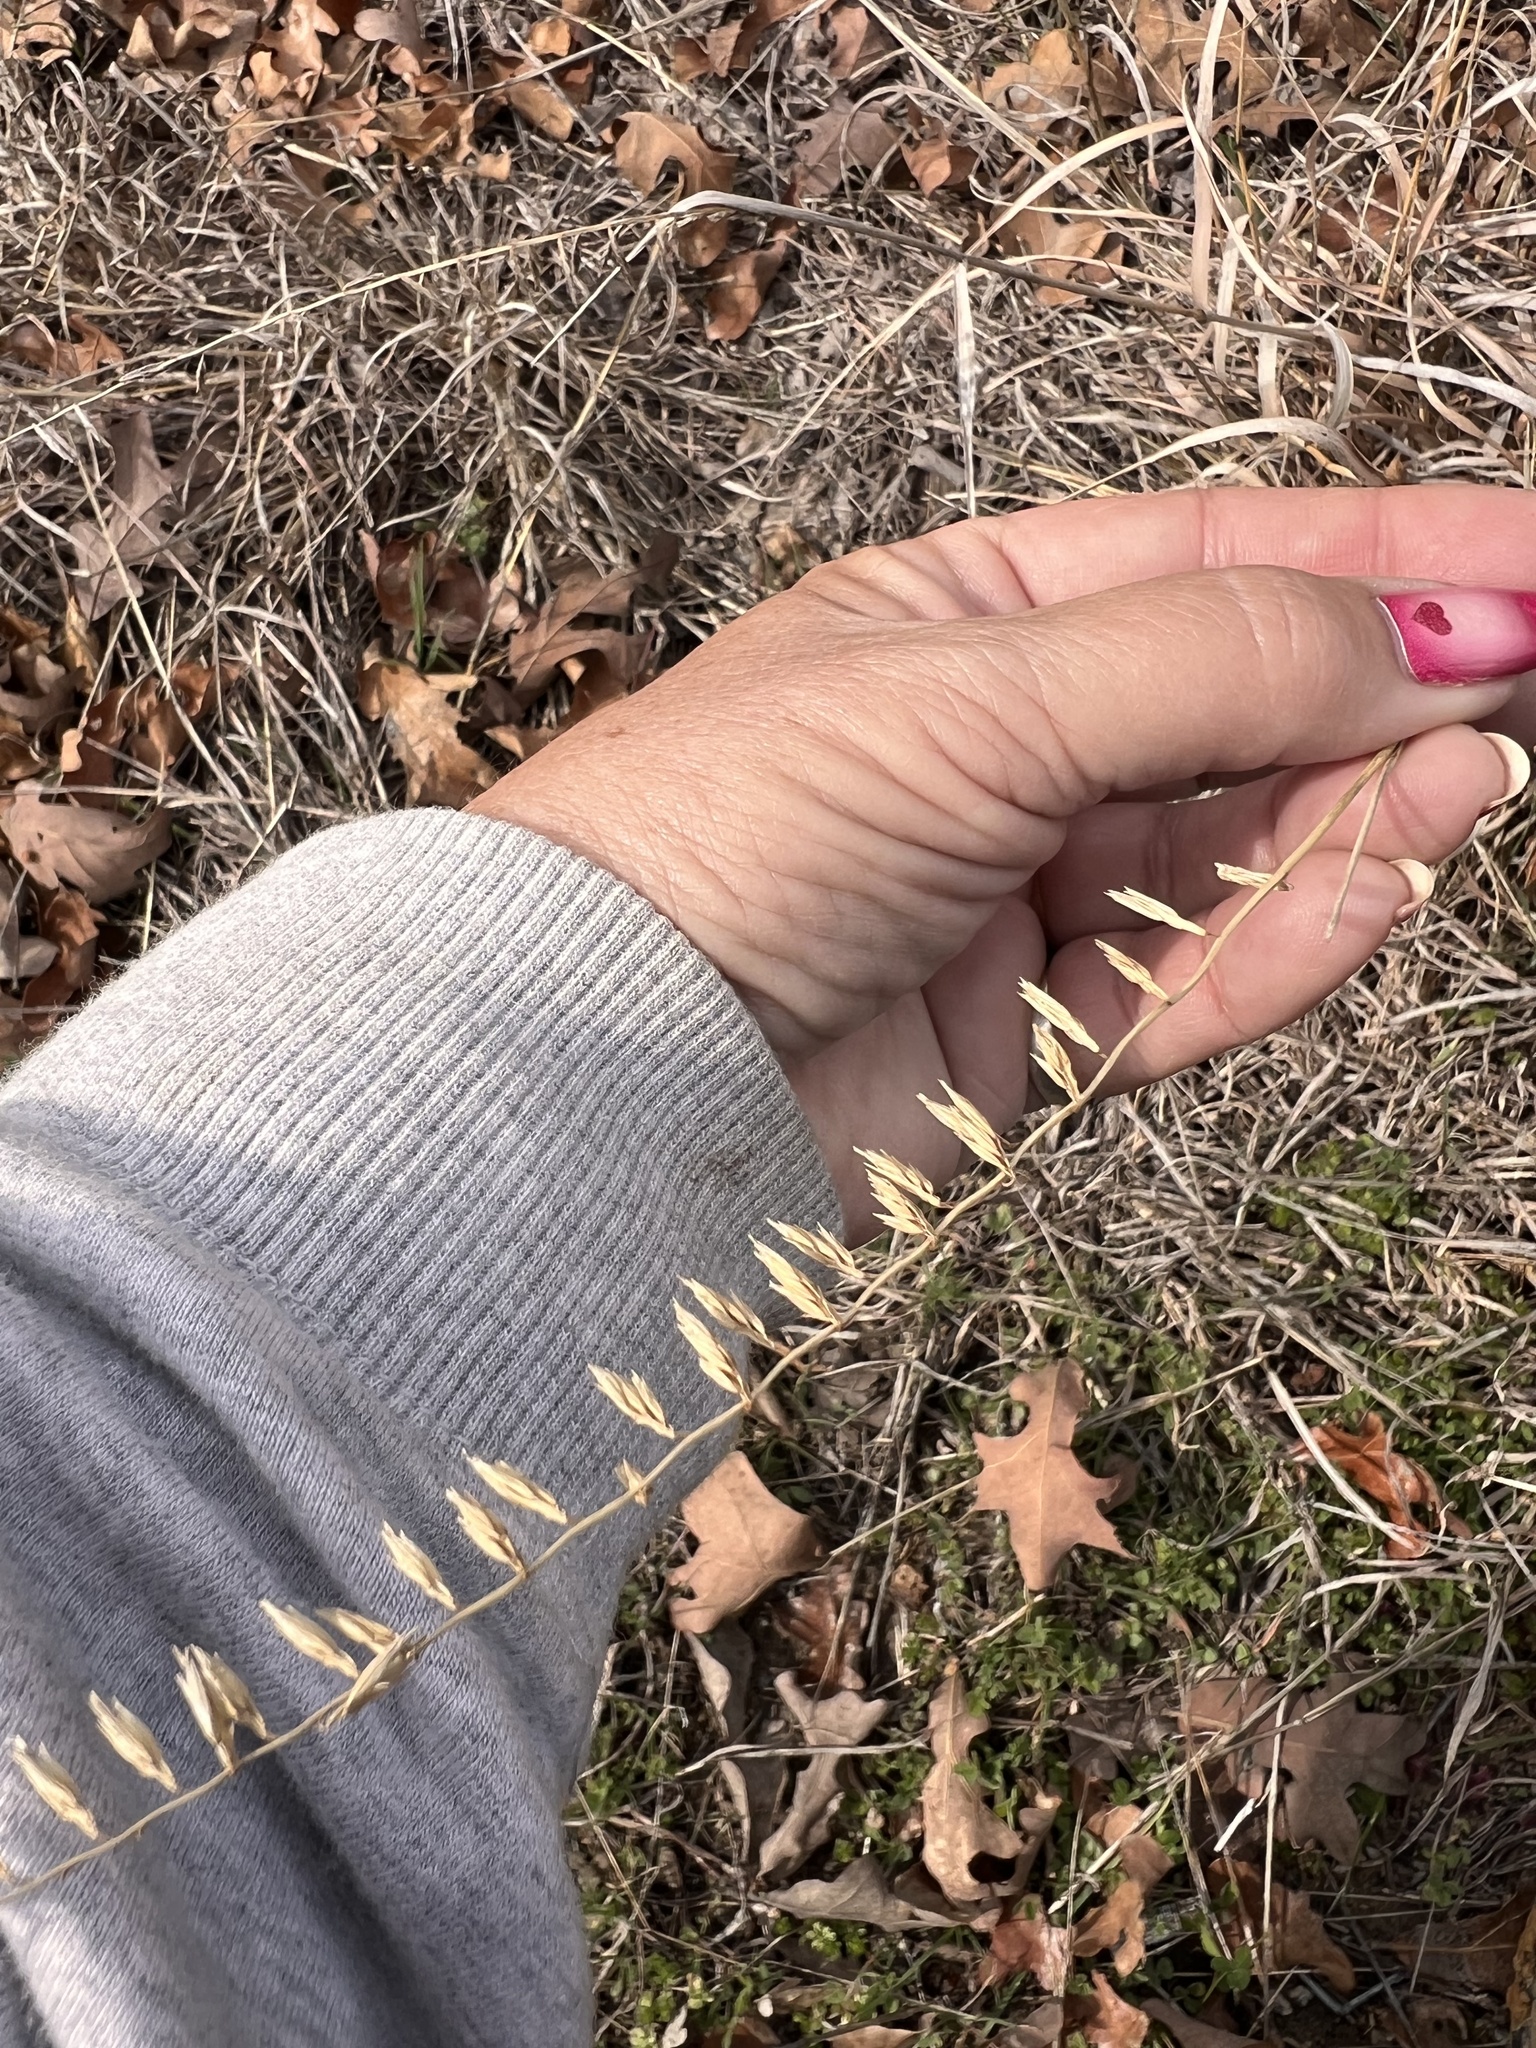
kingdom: Plantae
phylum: Tracheophyta
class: Liliopsida
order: Poales
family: Poaceae
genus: Bouteloua
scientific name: Bouteloua curtipendula
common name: Side-oats grama
